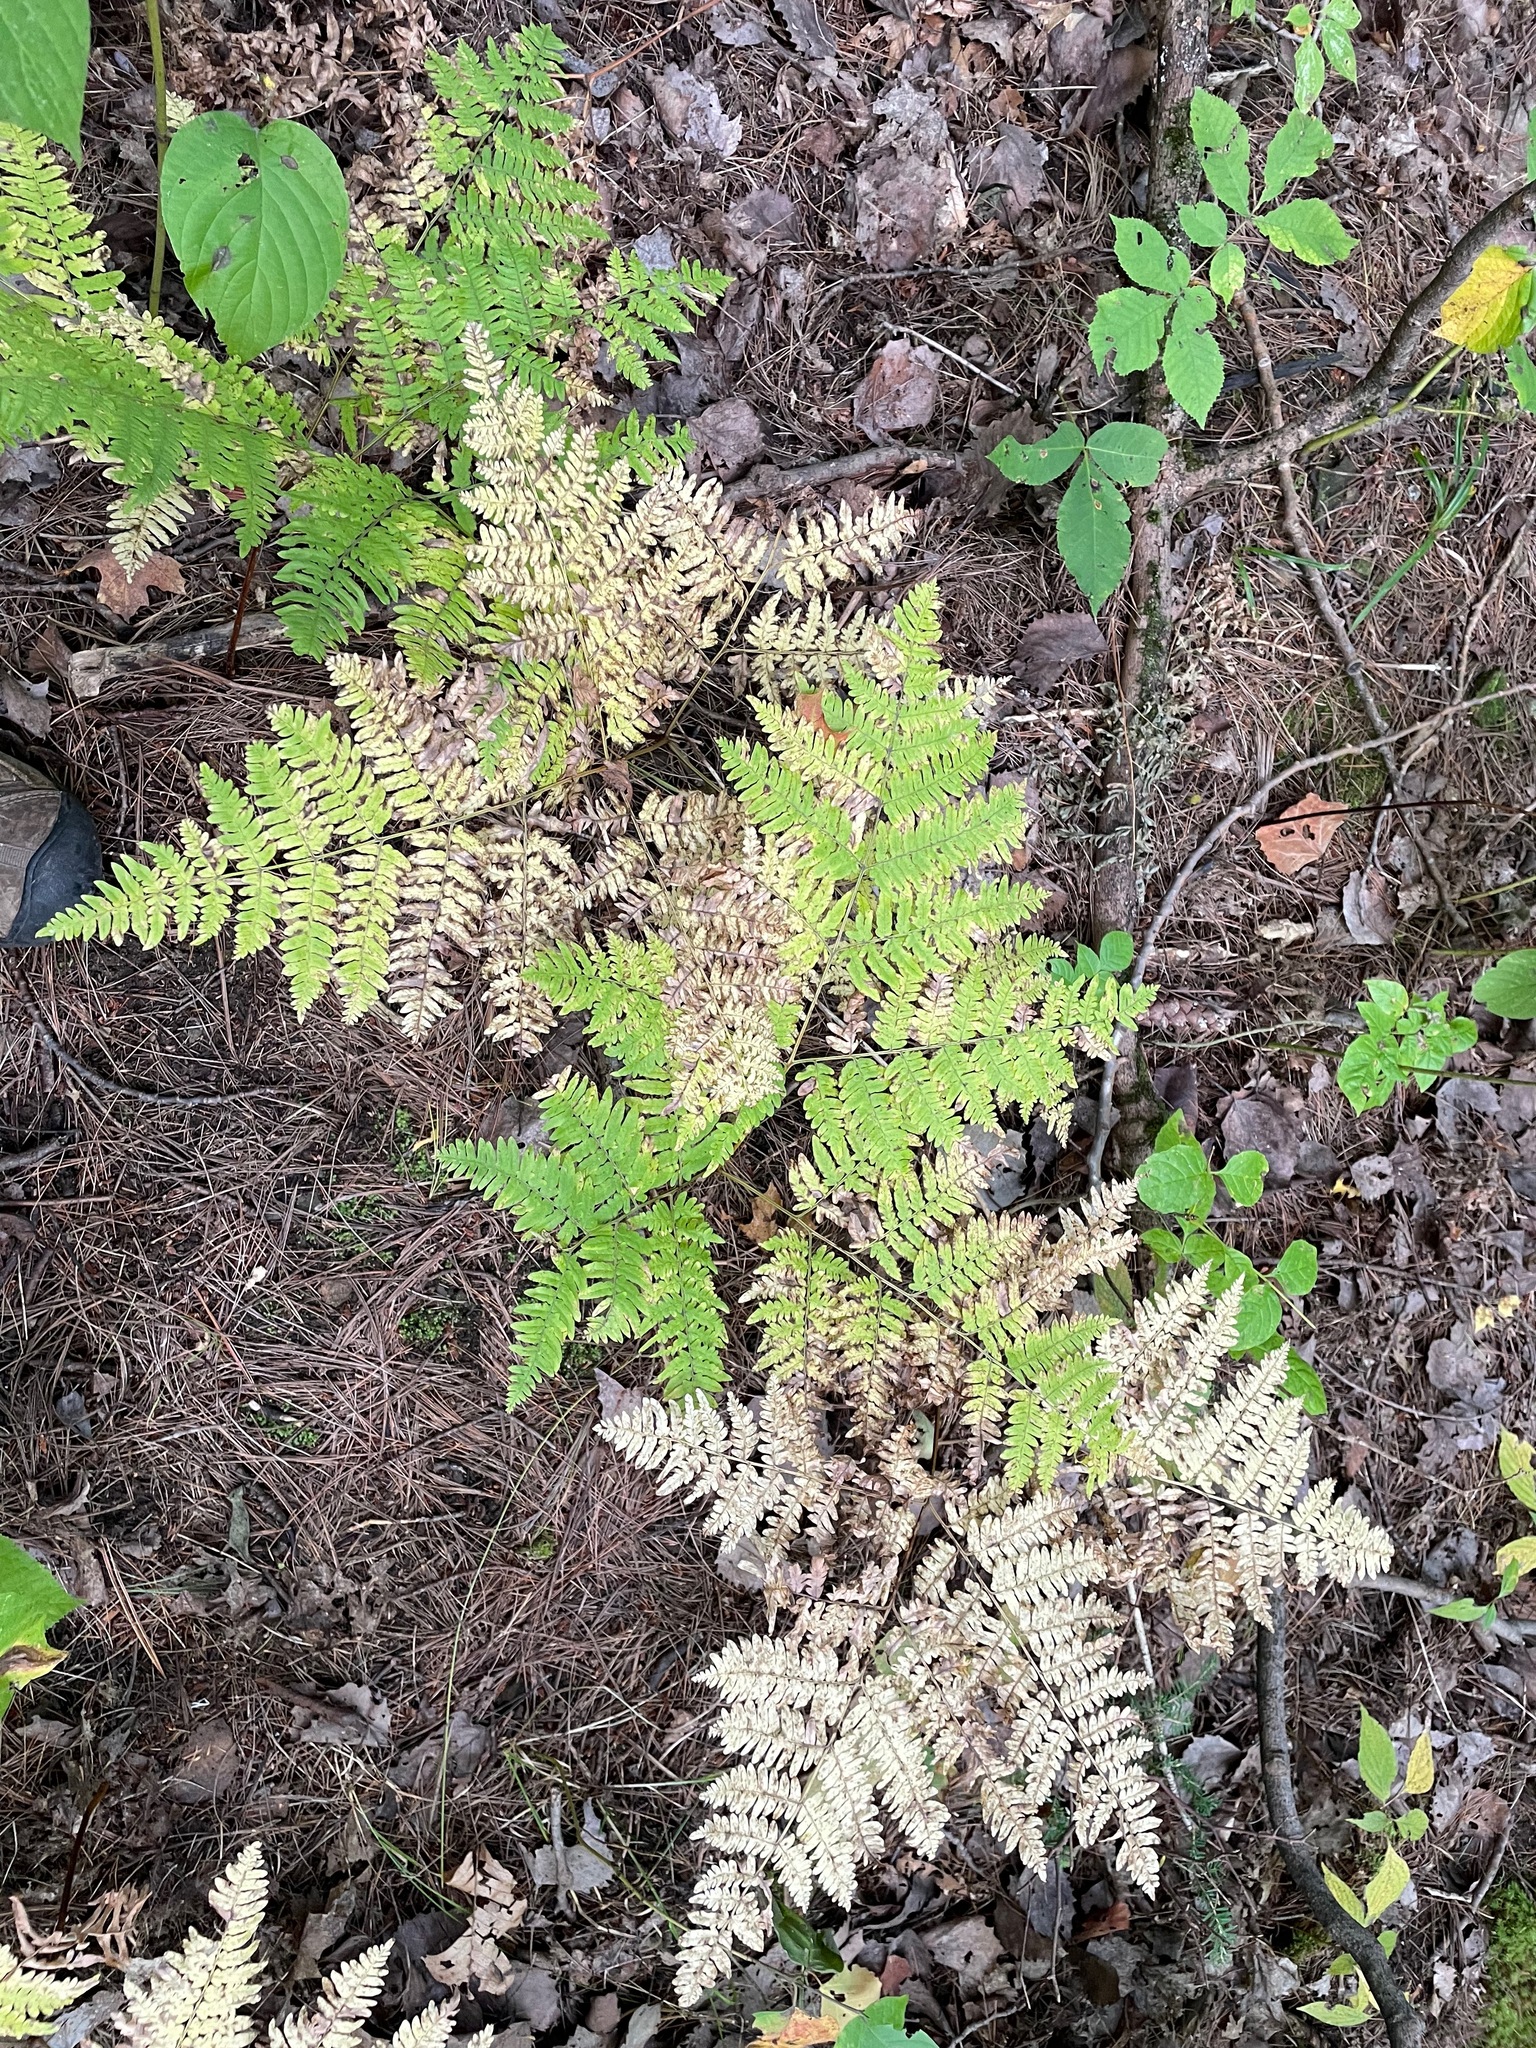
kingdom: Plantae
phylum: Tracheophyta
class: Polypodiopsida
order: Polypodiales
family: Dennstaedtiaceae
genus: Pteridium
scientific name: Pteridium aquilinum
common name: Bracken
